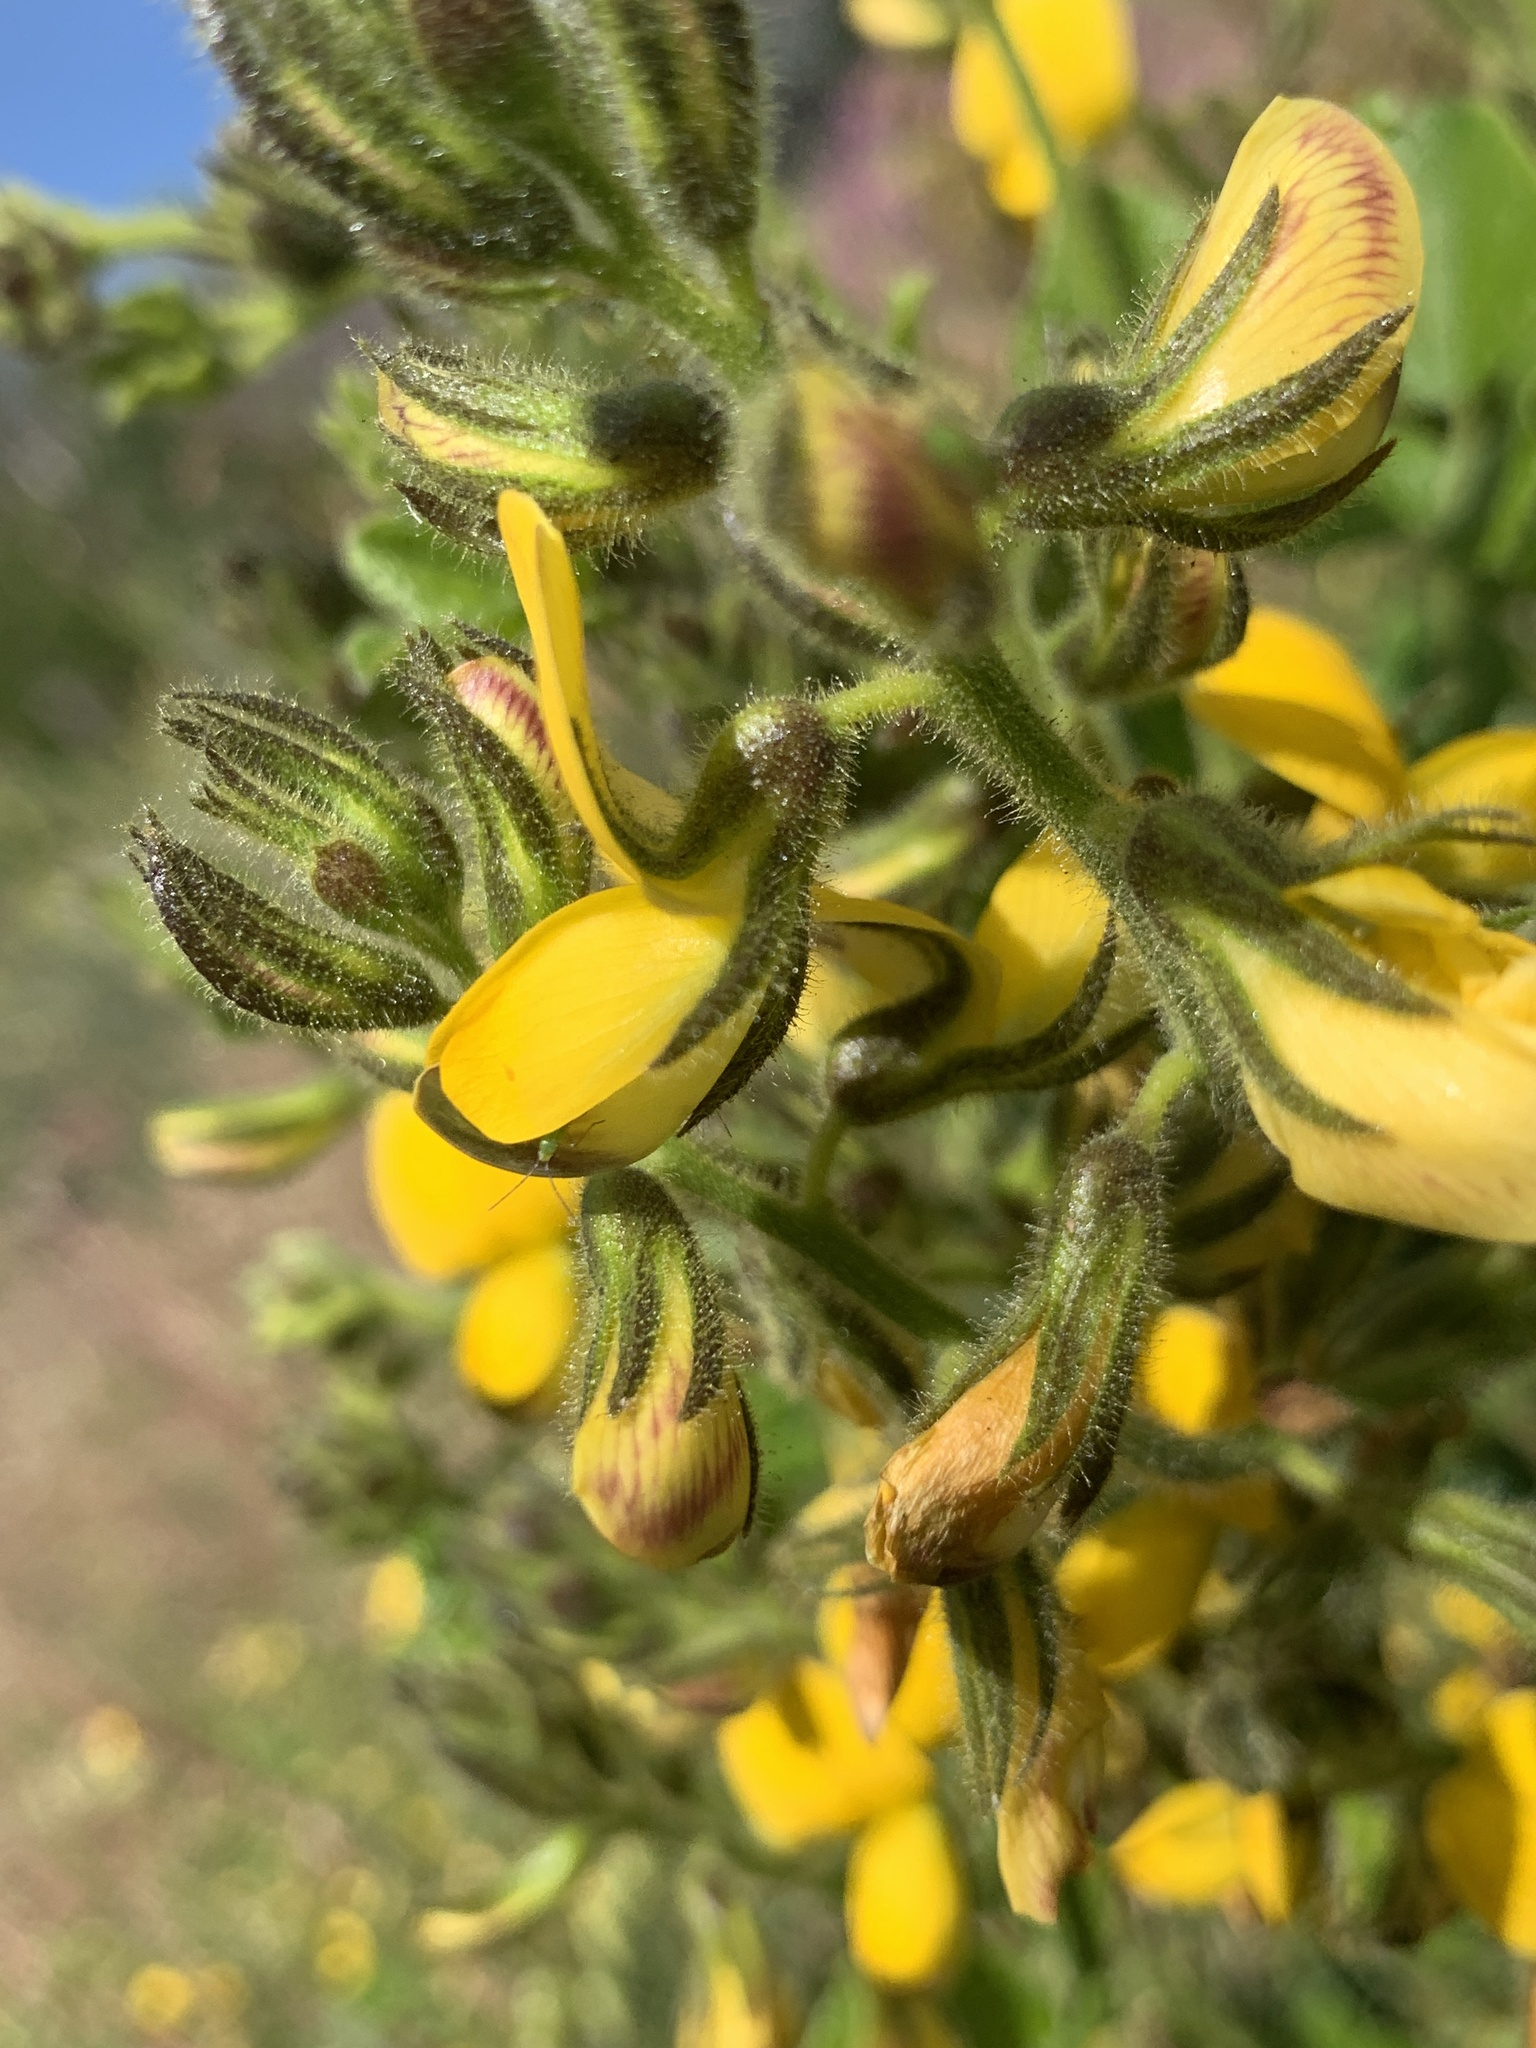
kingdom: Plantae
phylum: Tracheophyta
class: Magnoliopsida
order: Fabales
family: Fabaceae
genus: Bolusafra
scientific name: Bolusafra bituminosa
